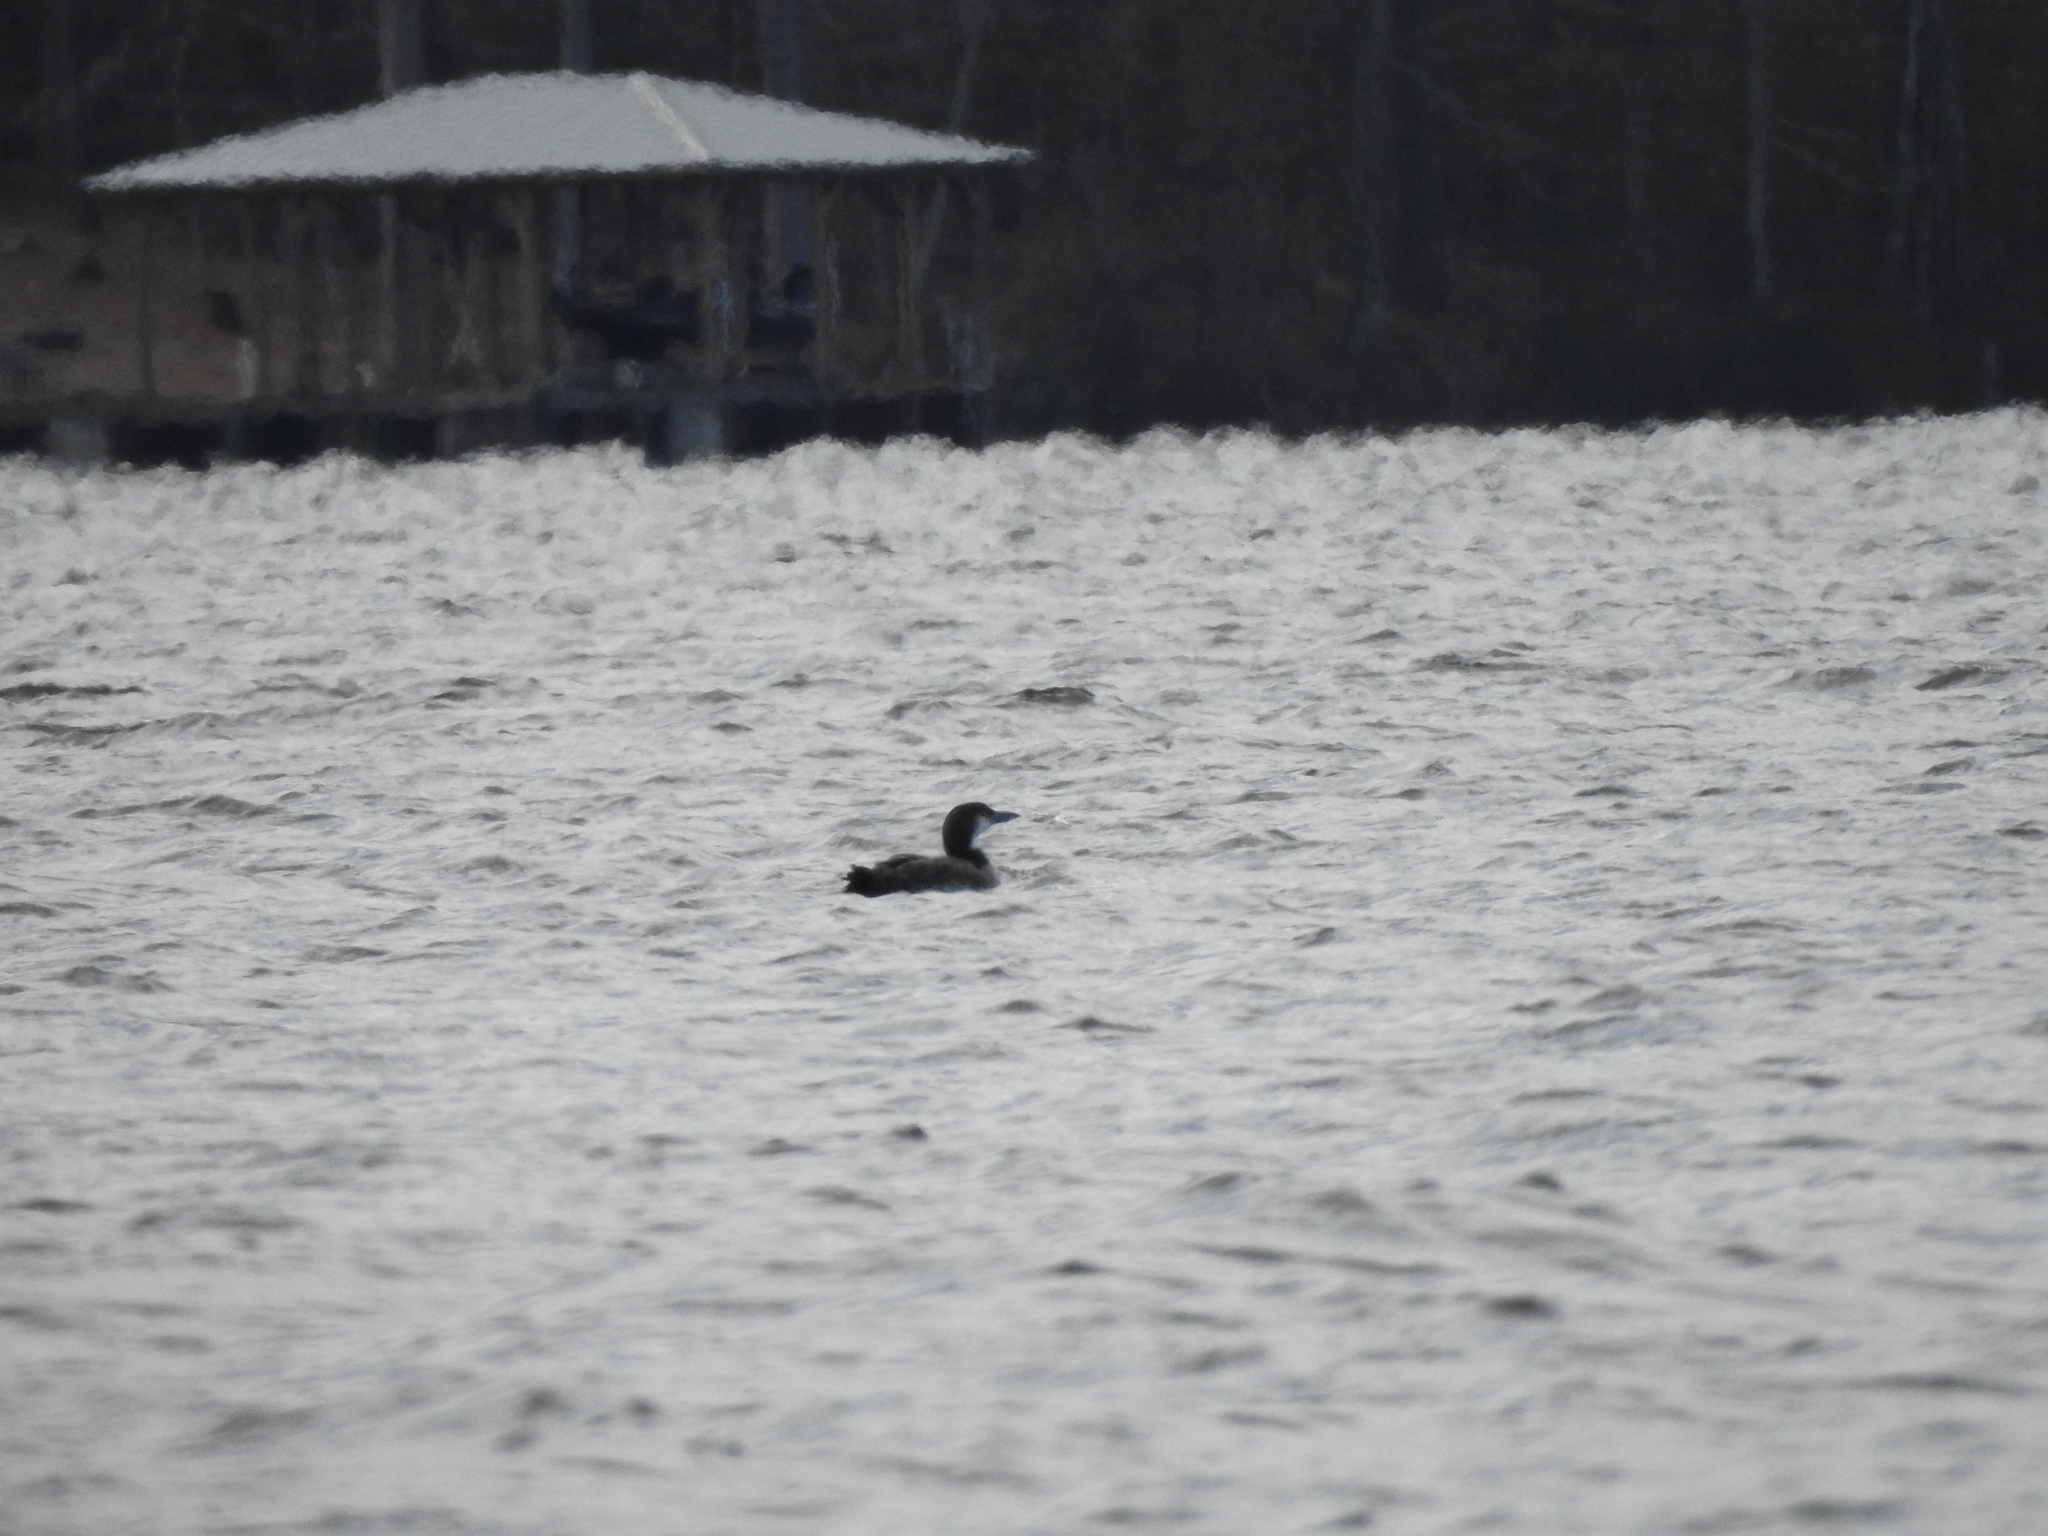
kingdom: Animalia
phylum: Chordata
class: Aves
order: Gaviiformes
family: Gaviidae
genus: Gavia
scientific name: Gavia immer
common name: Common loon
